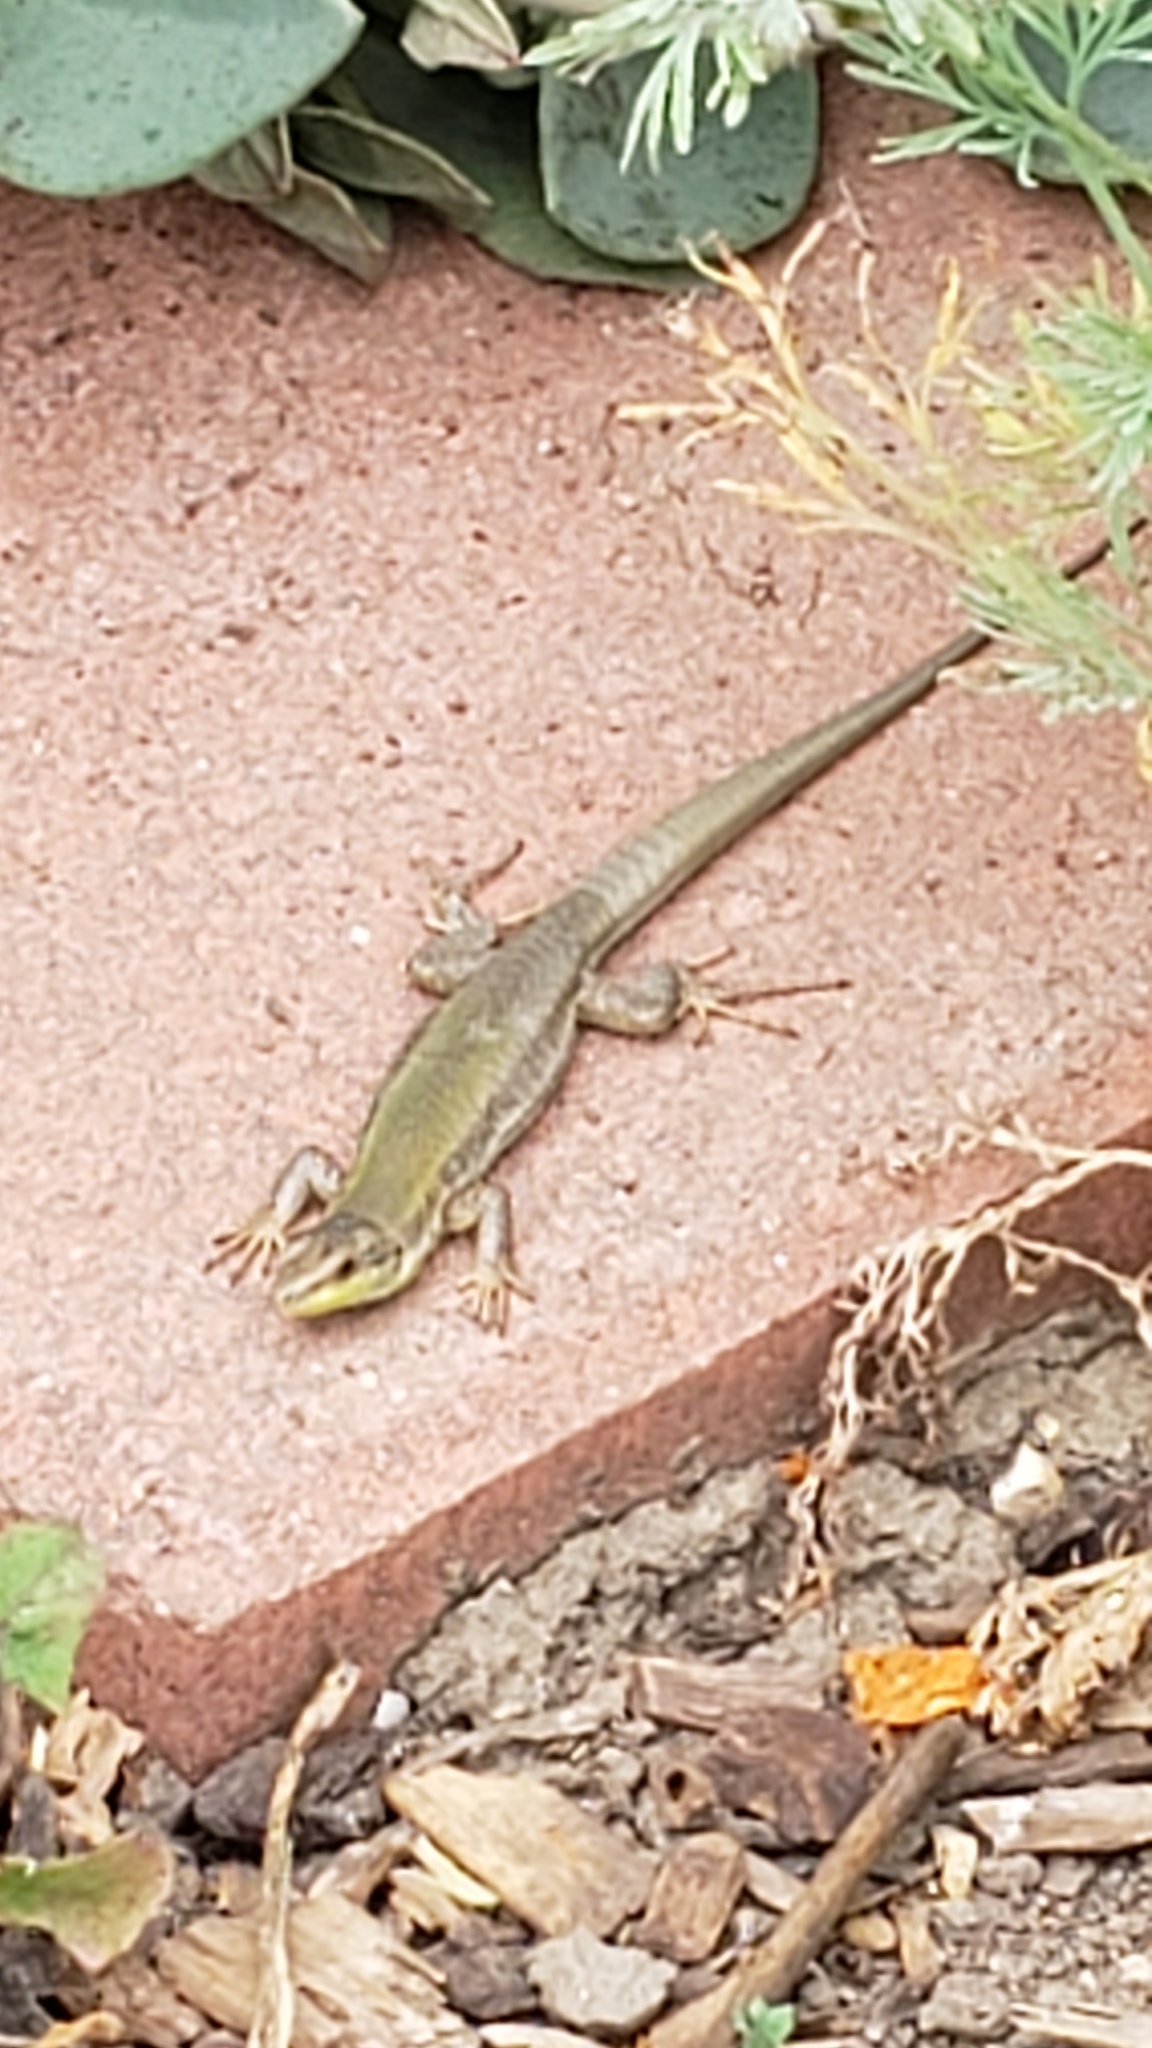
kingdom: Animalia
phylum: Chordata
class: Squamata
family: Lacertidae
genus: Podarcis
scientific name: Podarcis siculus
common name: Italian wall lizard
